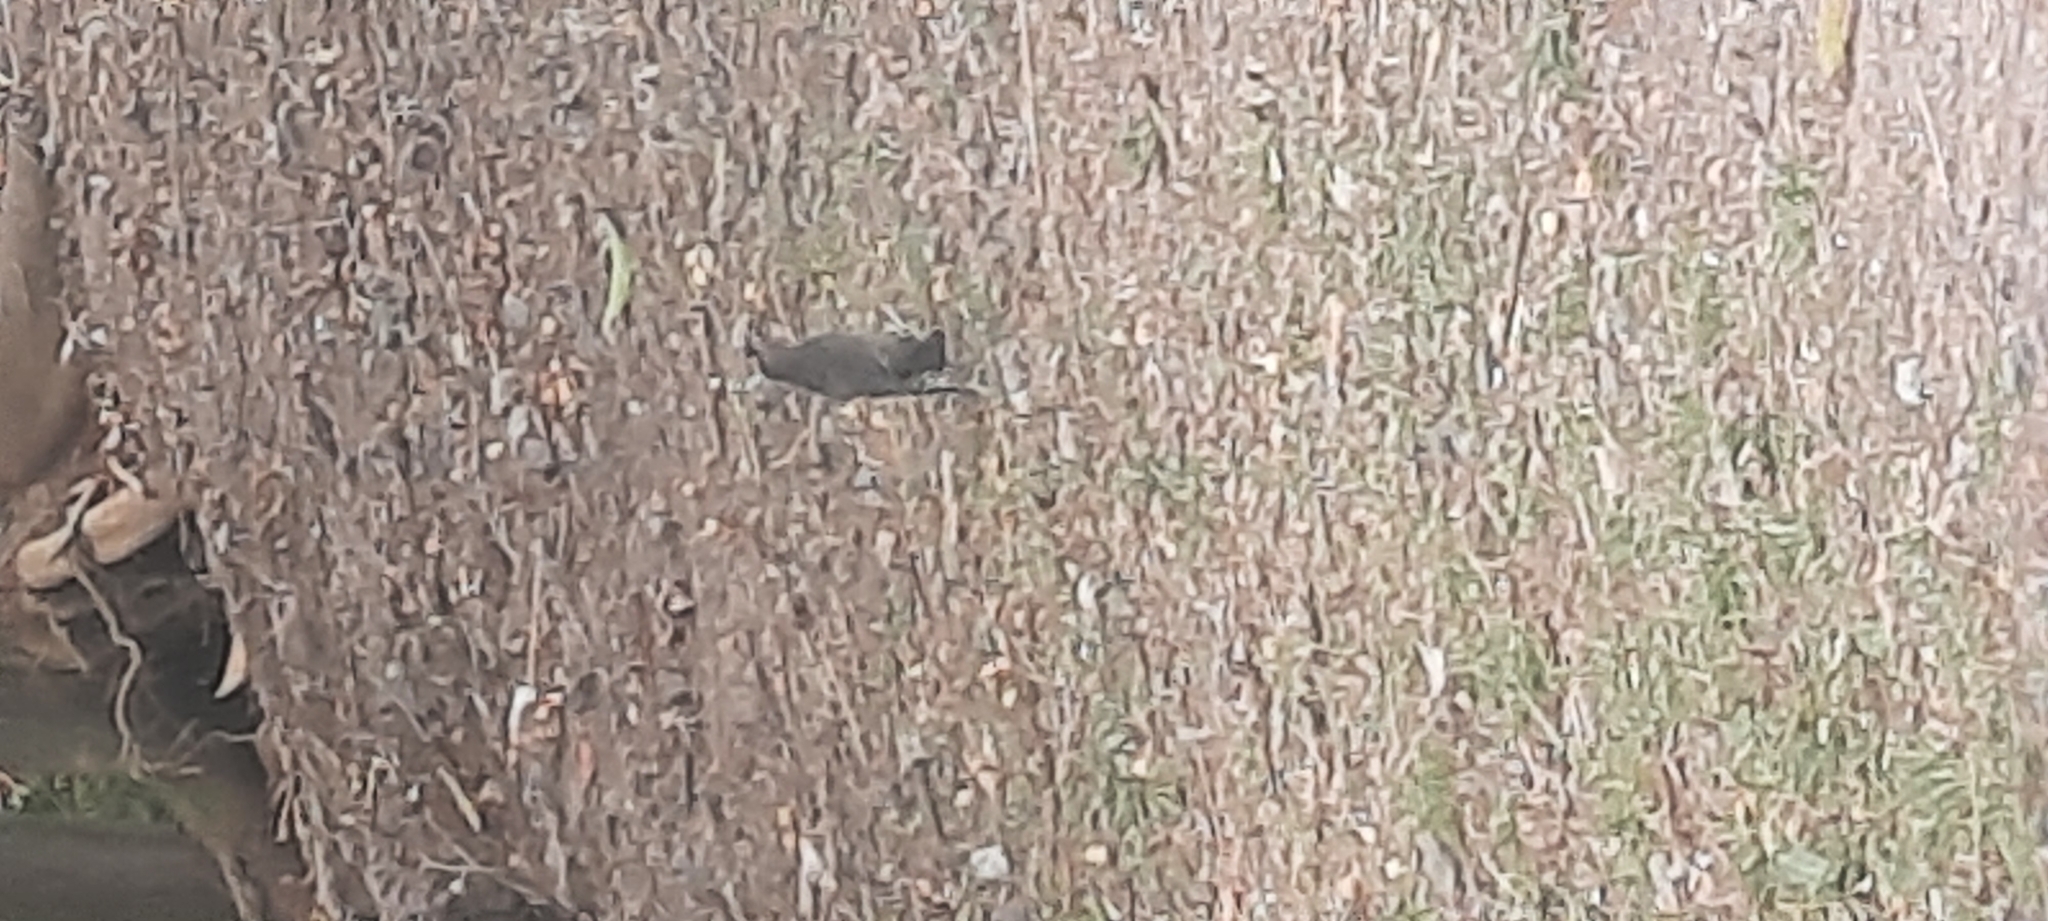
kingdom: Animalia
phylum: Chordata
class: Aves
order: Passeriformes
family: Icteridae
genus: Molothrus
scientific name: Molothrus bonariensis
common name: Shiny cowbird
